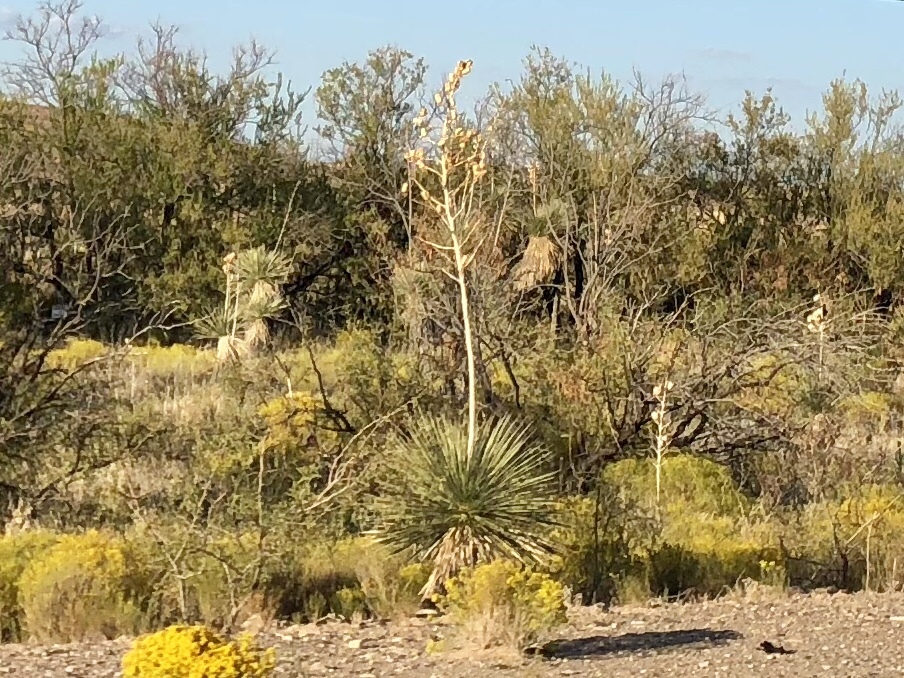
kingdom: Plantae
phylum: Tracheophyta
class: Liliopsida
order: Asparagales
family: Asparagaceae
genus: Yucca
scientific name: Yucca elata
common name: Palmella
